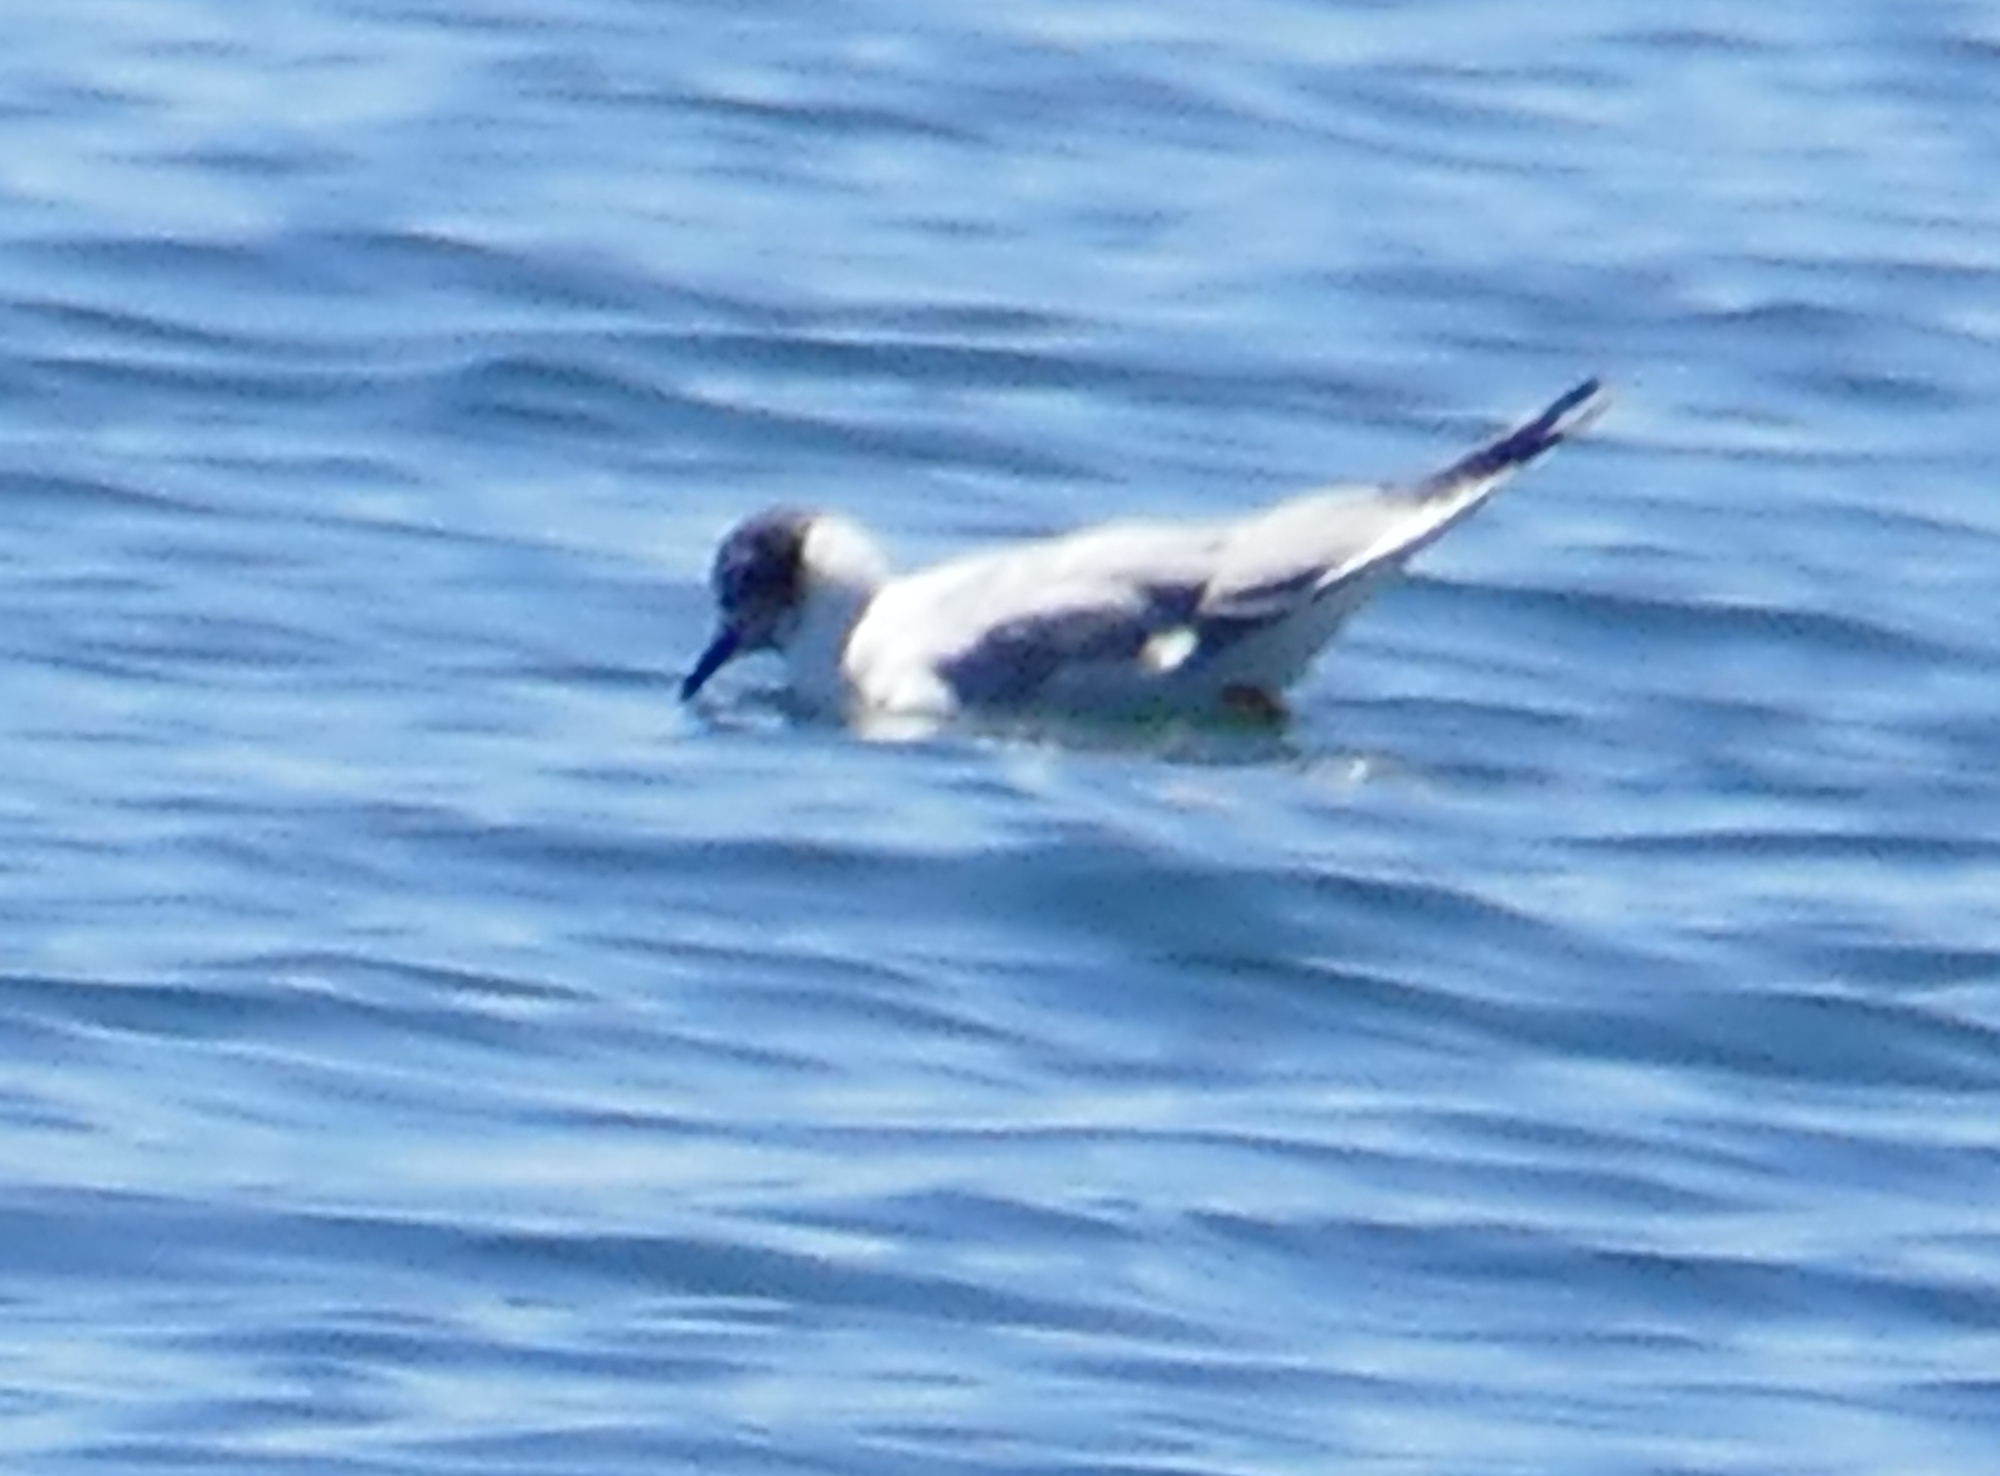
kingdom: Animalia
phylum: Chordata
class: Aves
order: Charadriiformes
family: Laridae
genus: Chroicocephalus
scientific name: Chroicocephalus philadelphia
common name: Bonaparte's gull
